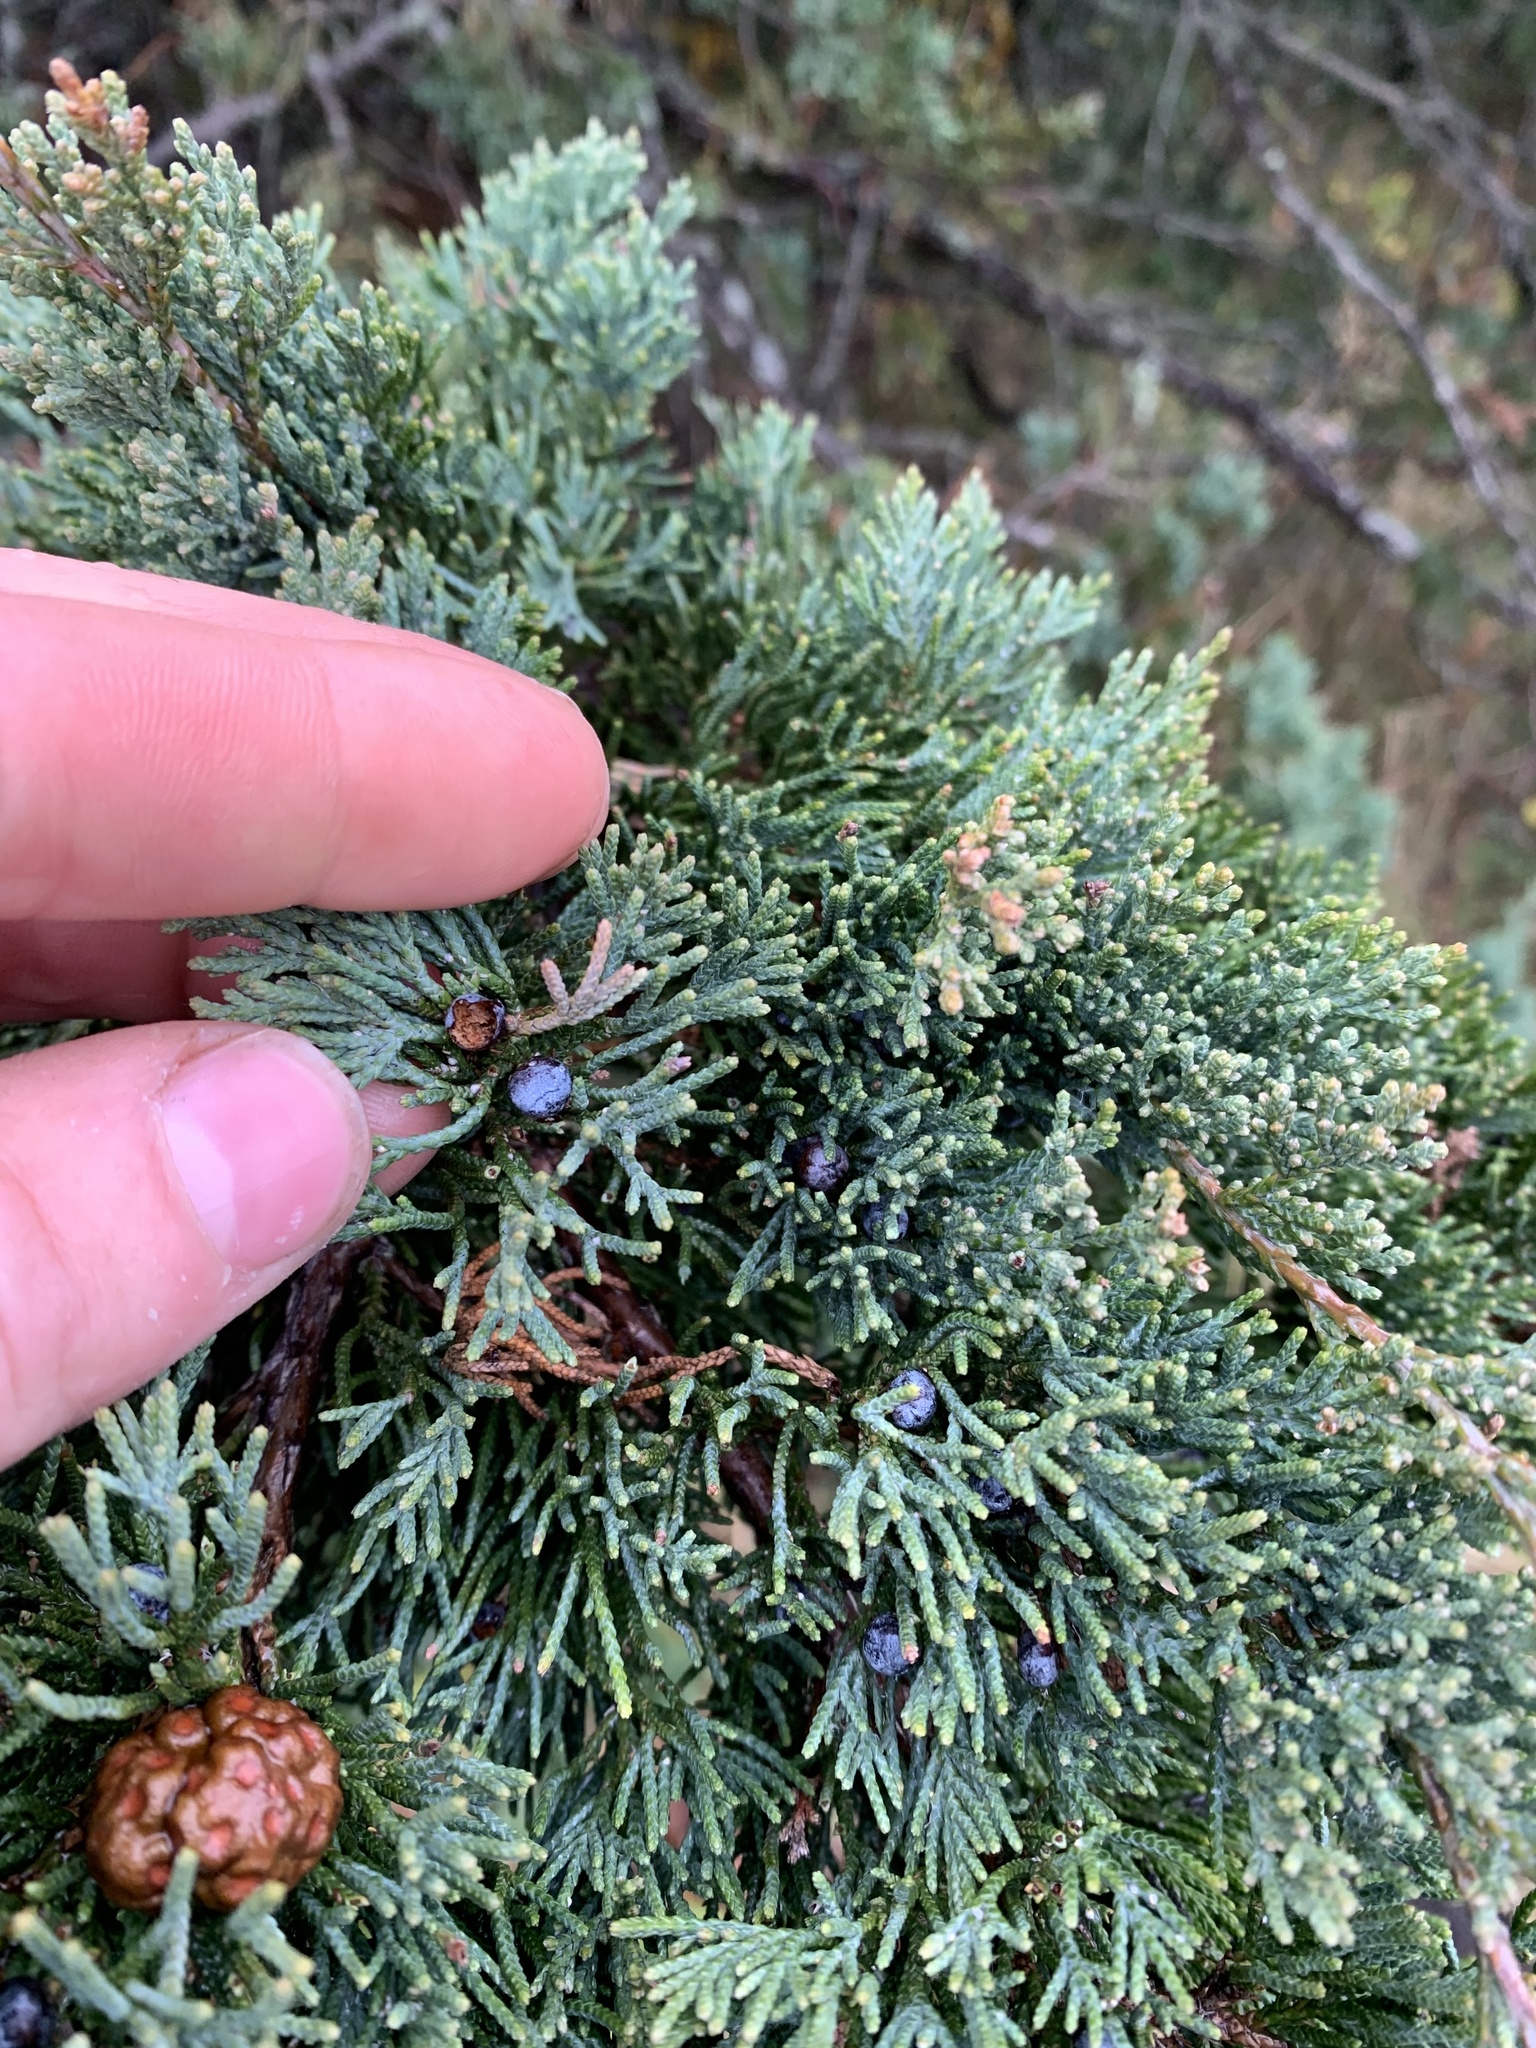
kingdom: Plantae
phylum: Tracheophyta
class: Pinopsida
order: Pinales
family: Cupressaceae
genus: Juniperus
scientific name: Juniperus virginiana
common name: Red juniper
